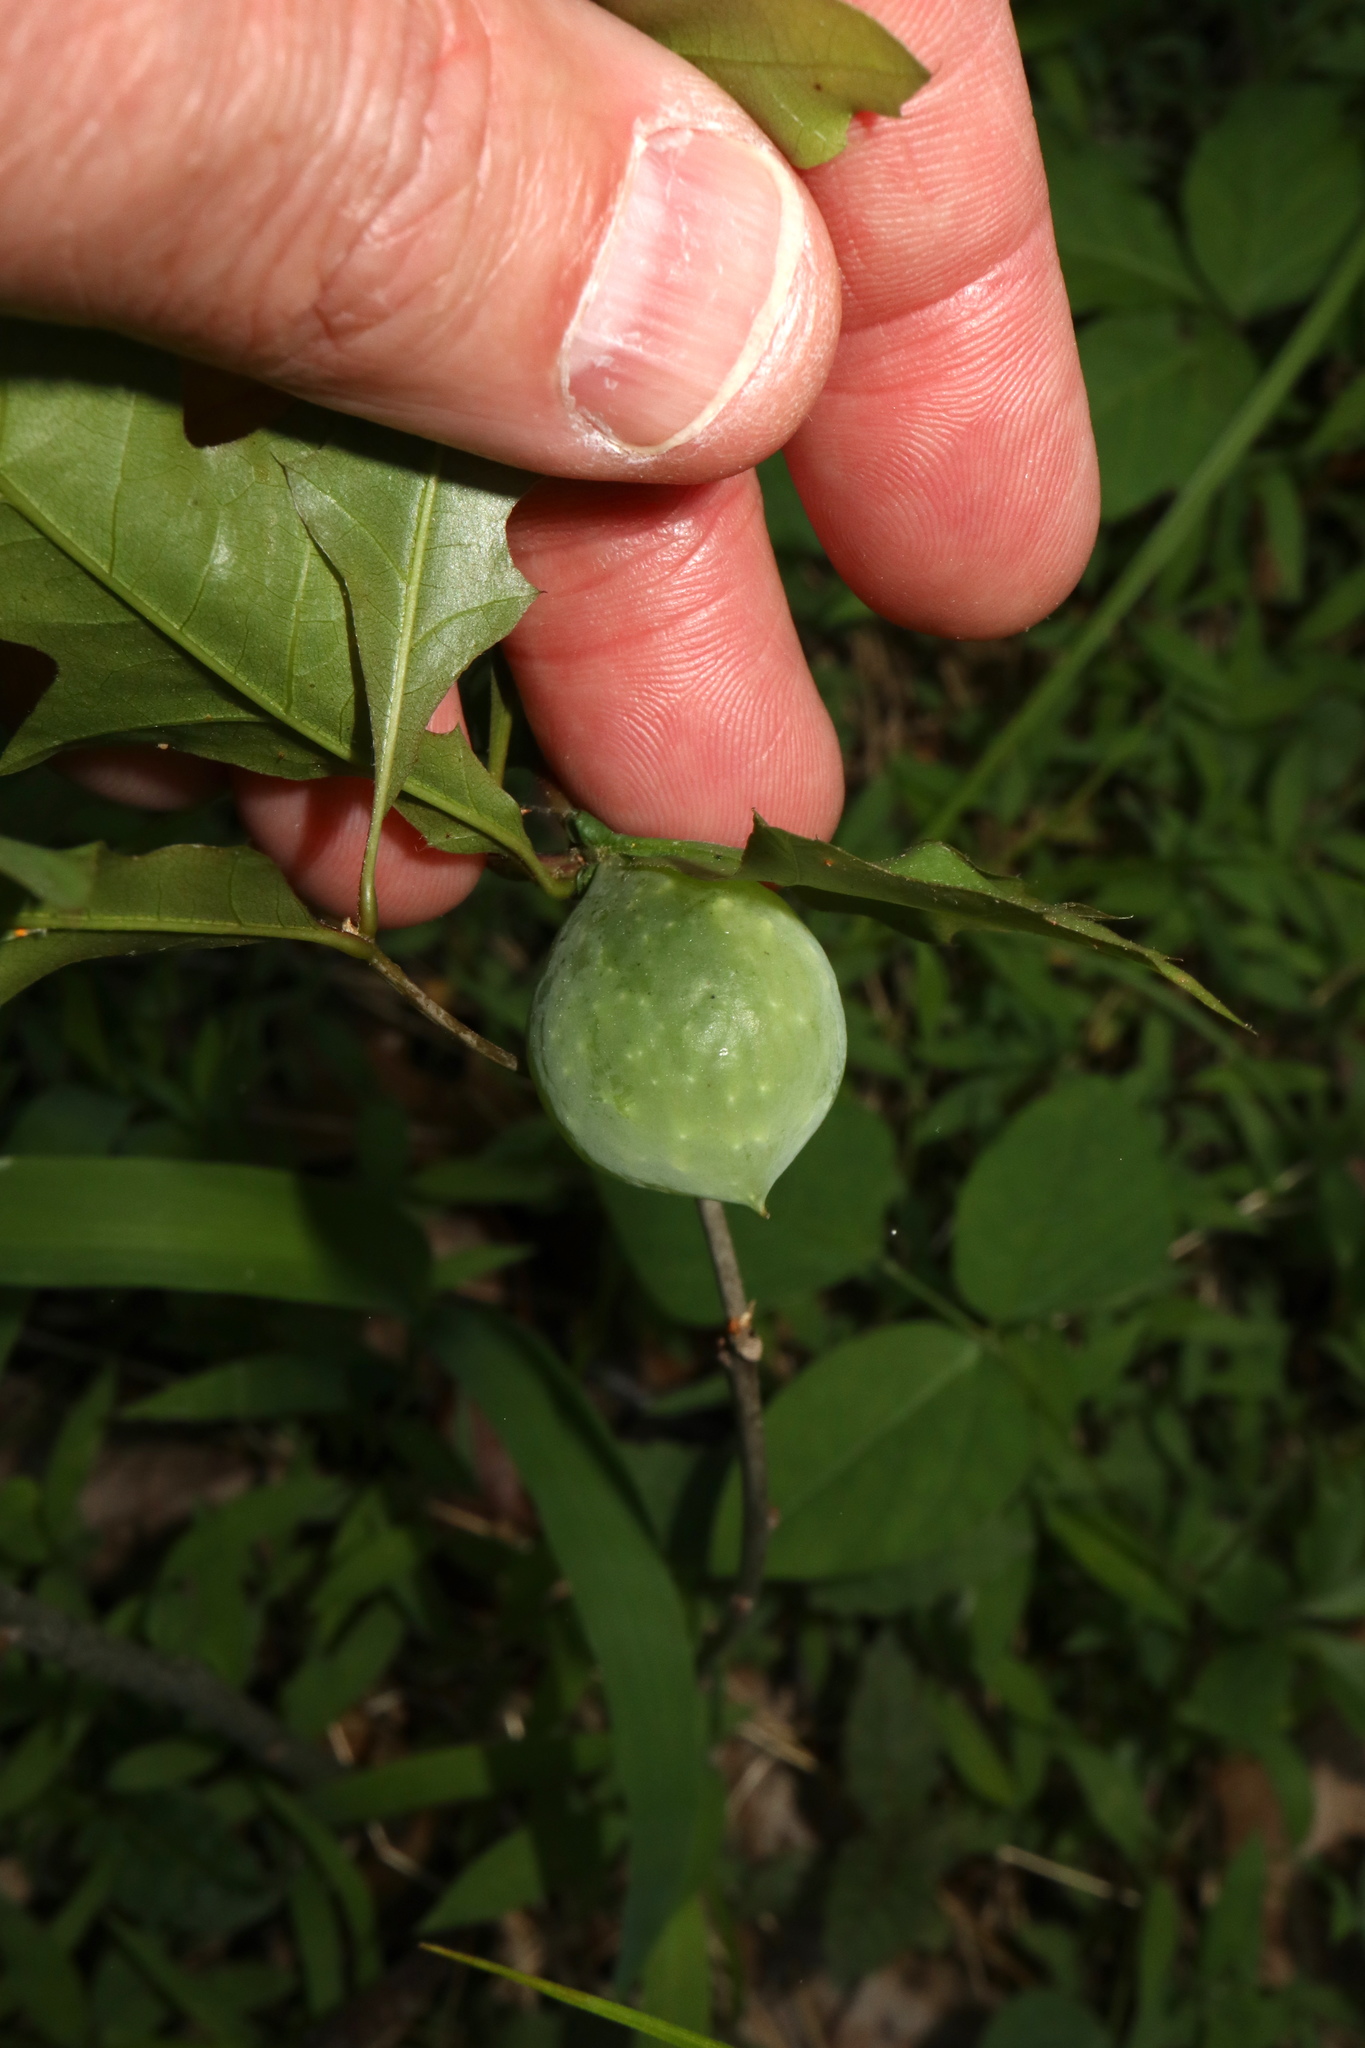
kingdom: Animalia
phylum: Arthropoda
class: Insecta
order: Hymenoptera
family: Cynipidae
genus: Amphibolips
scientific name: Amphibolips
